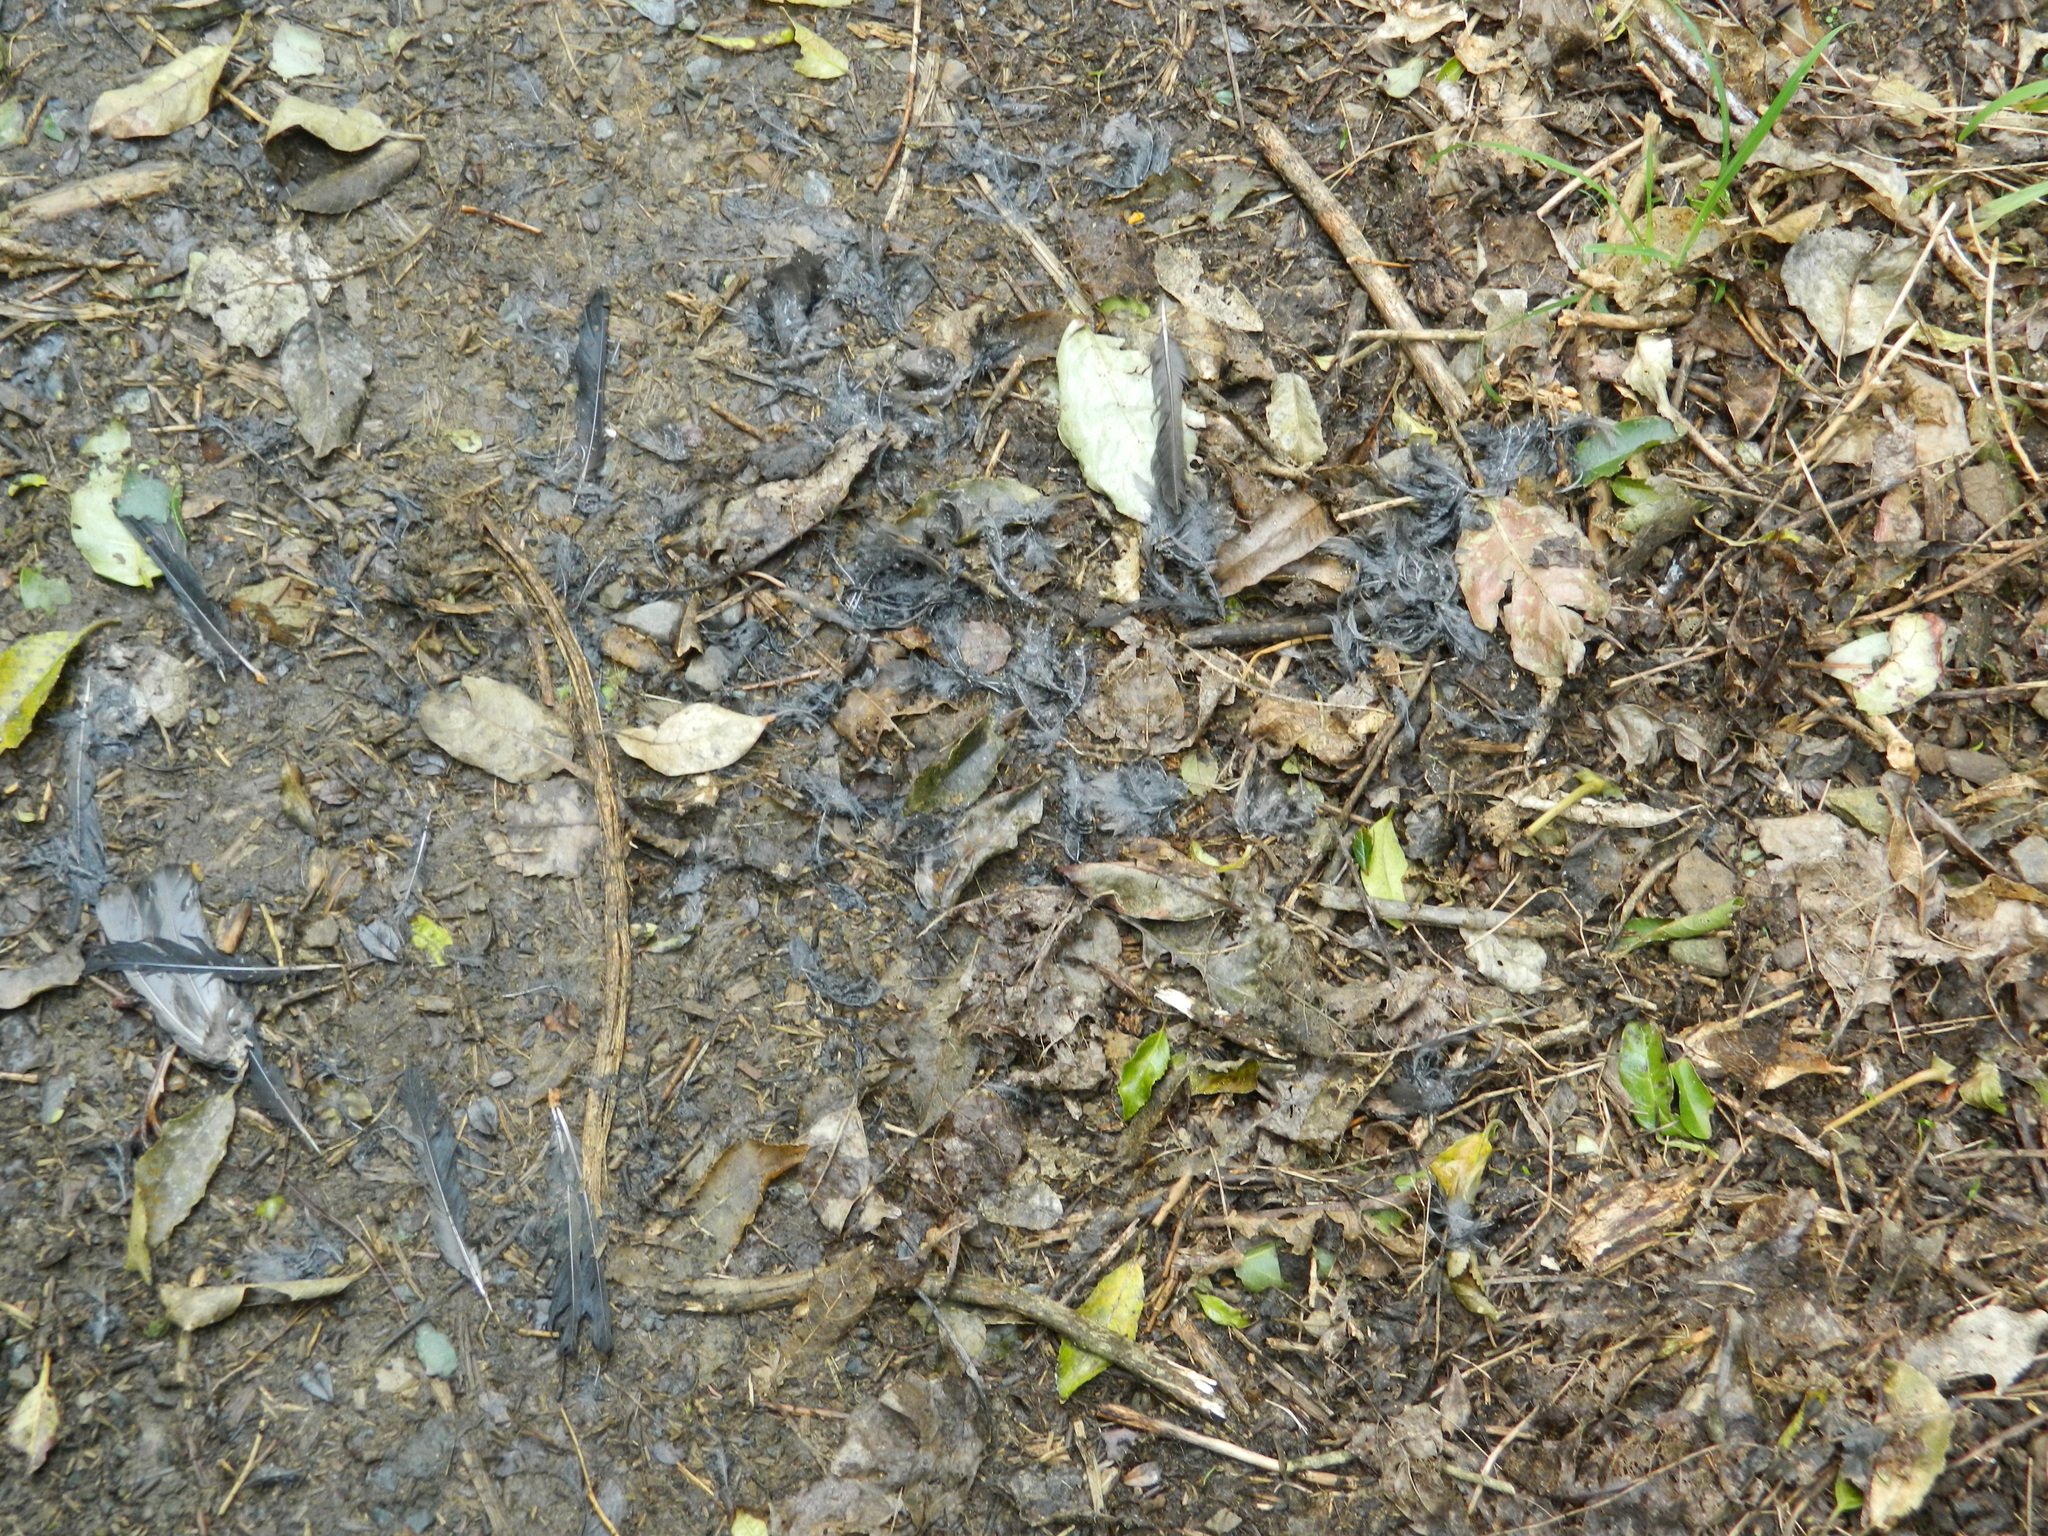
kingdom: Animalia
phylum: Chordata
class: Aves
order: Falconiformes
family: Falconidae
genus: Falco
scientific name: Falco novaeseelandiae
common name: New zealand falcon
